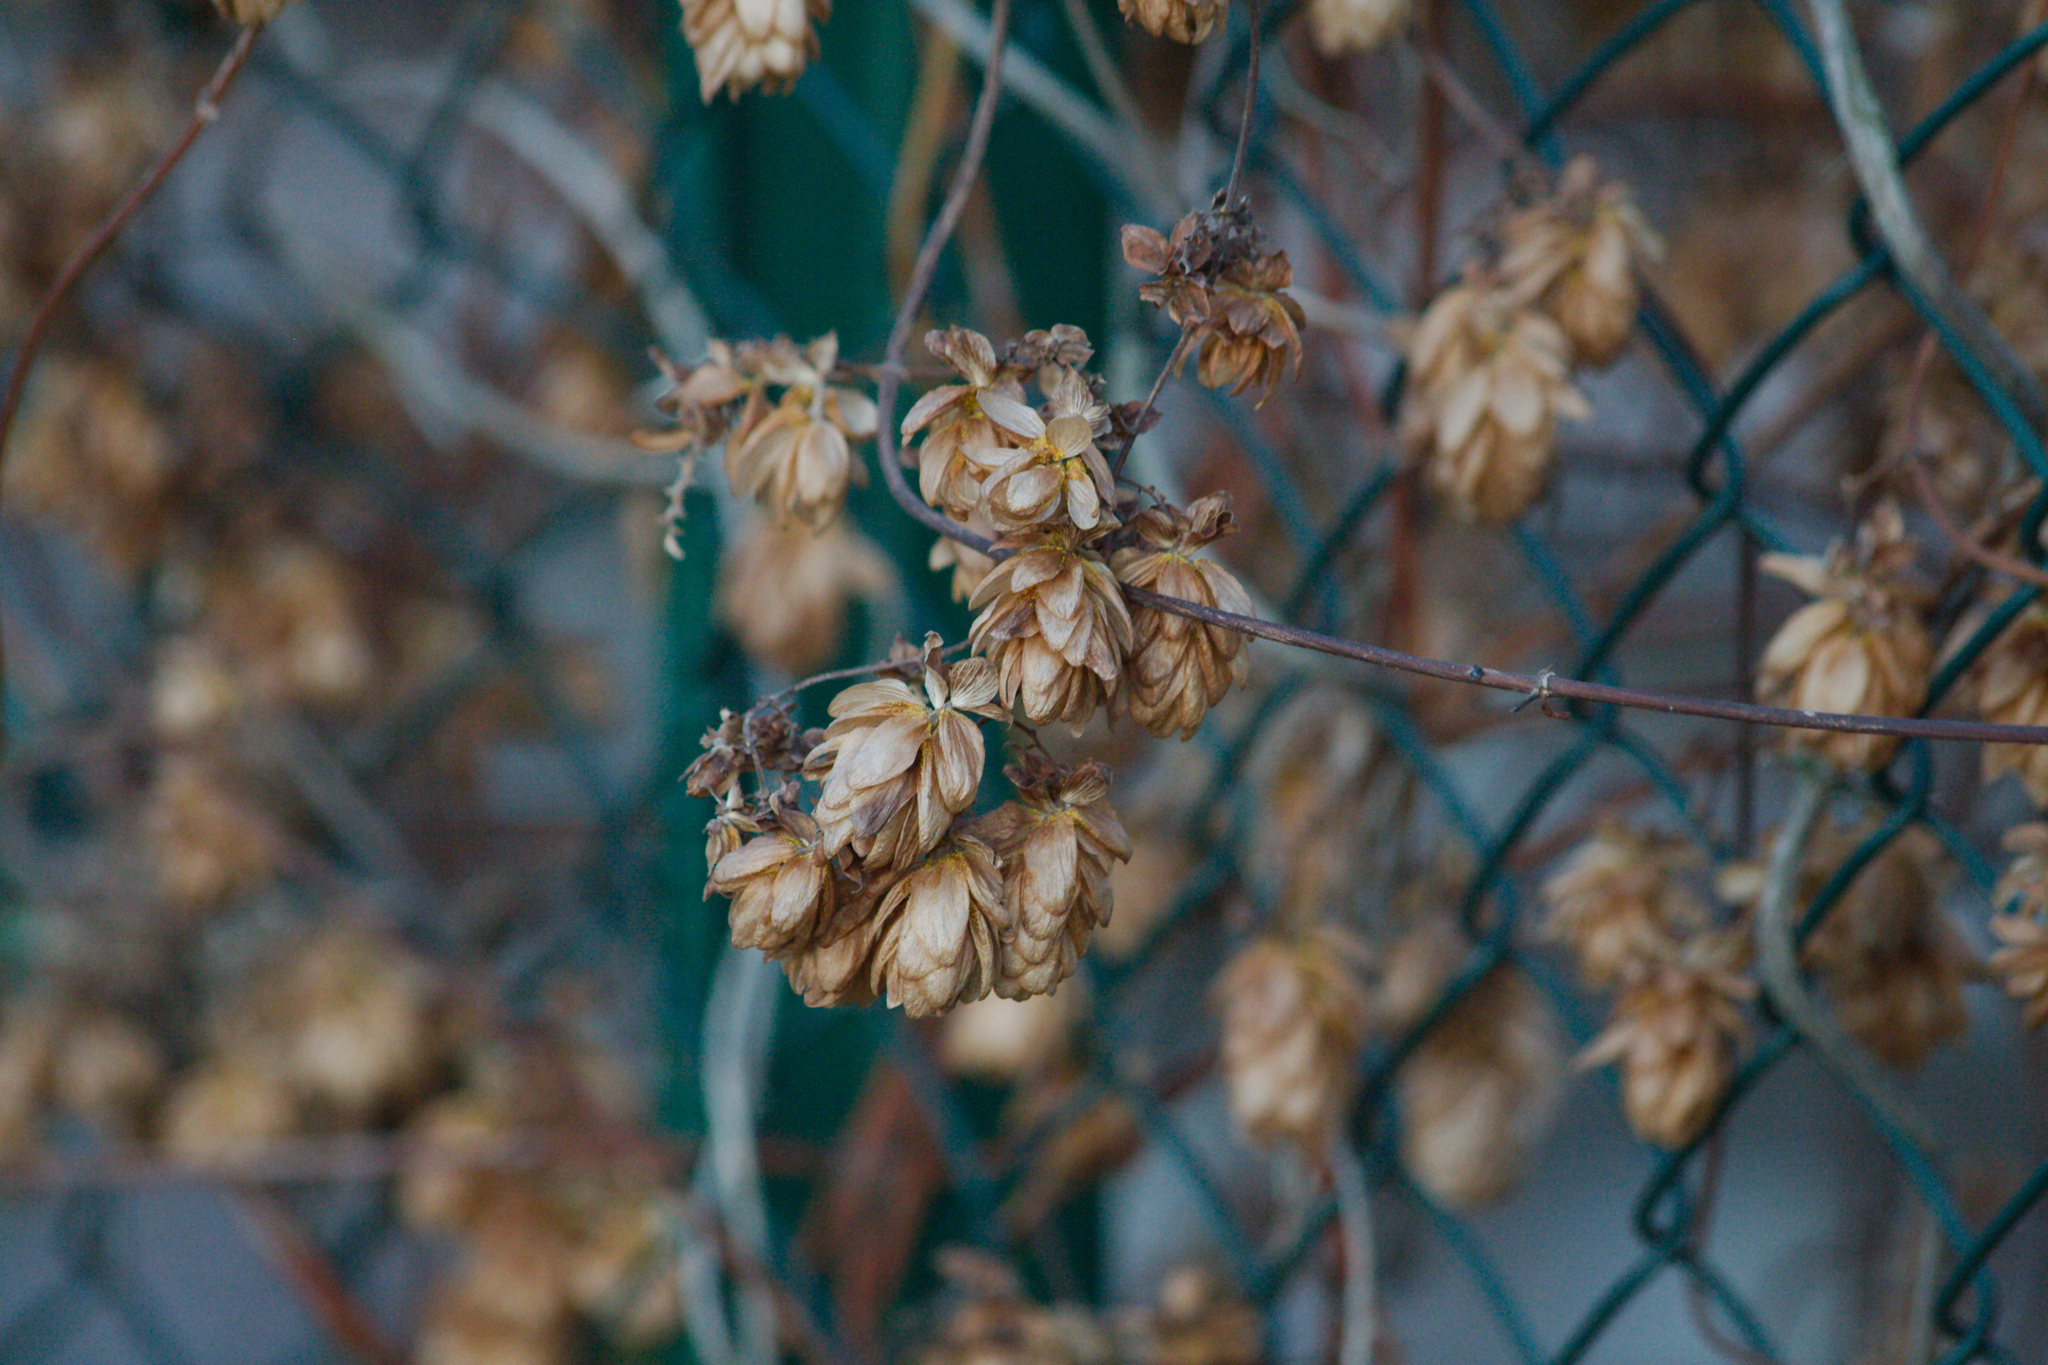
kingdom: Plantae
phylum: Tracheophyta
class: Magnoliopsida
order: Rosales
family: Cannabaceae
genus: Humulus
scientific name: Humulus lupulus
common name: Hop
